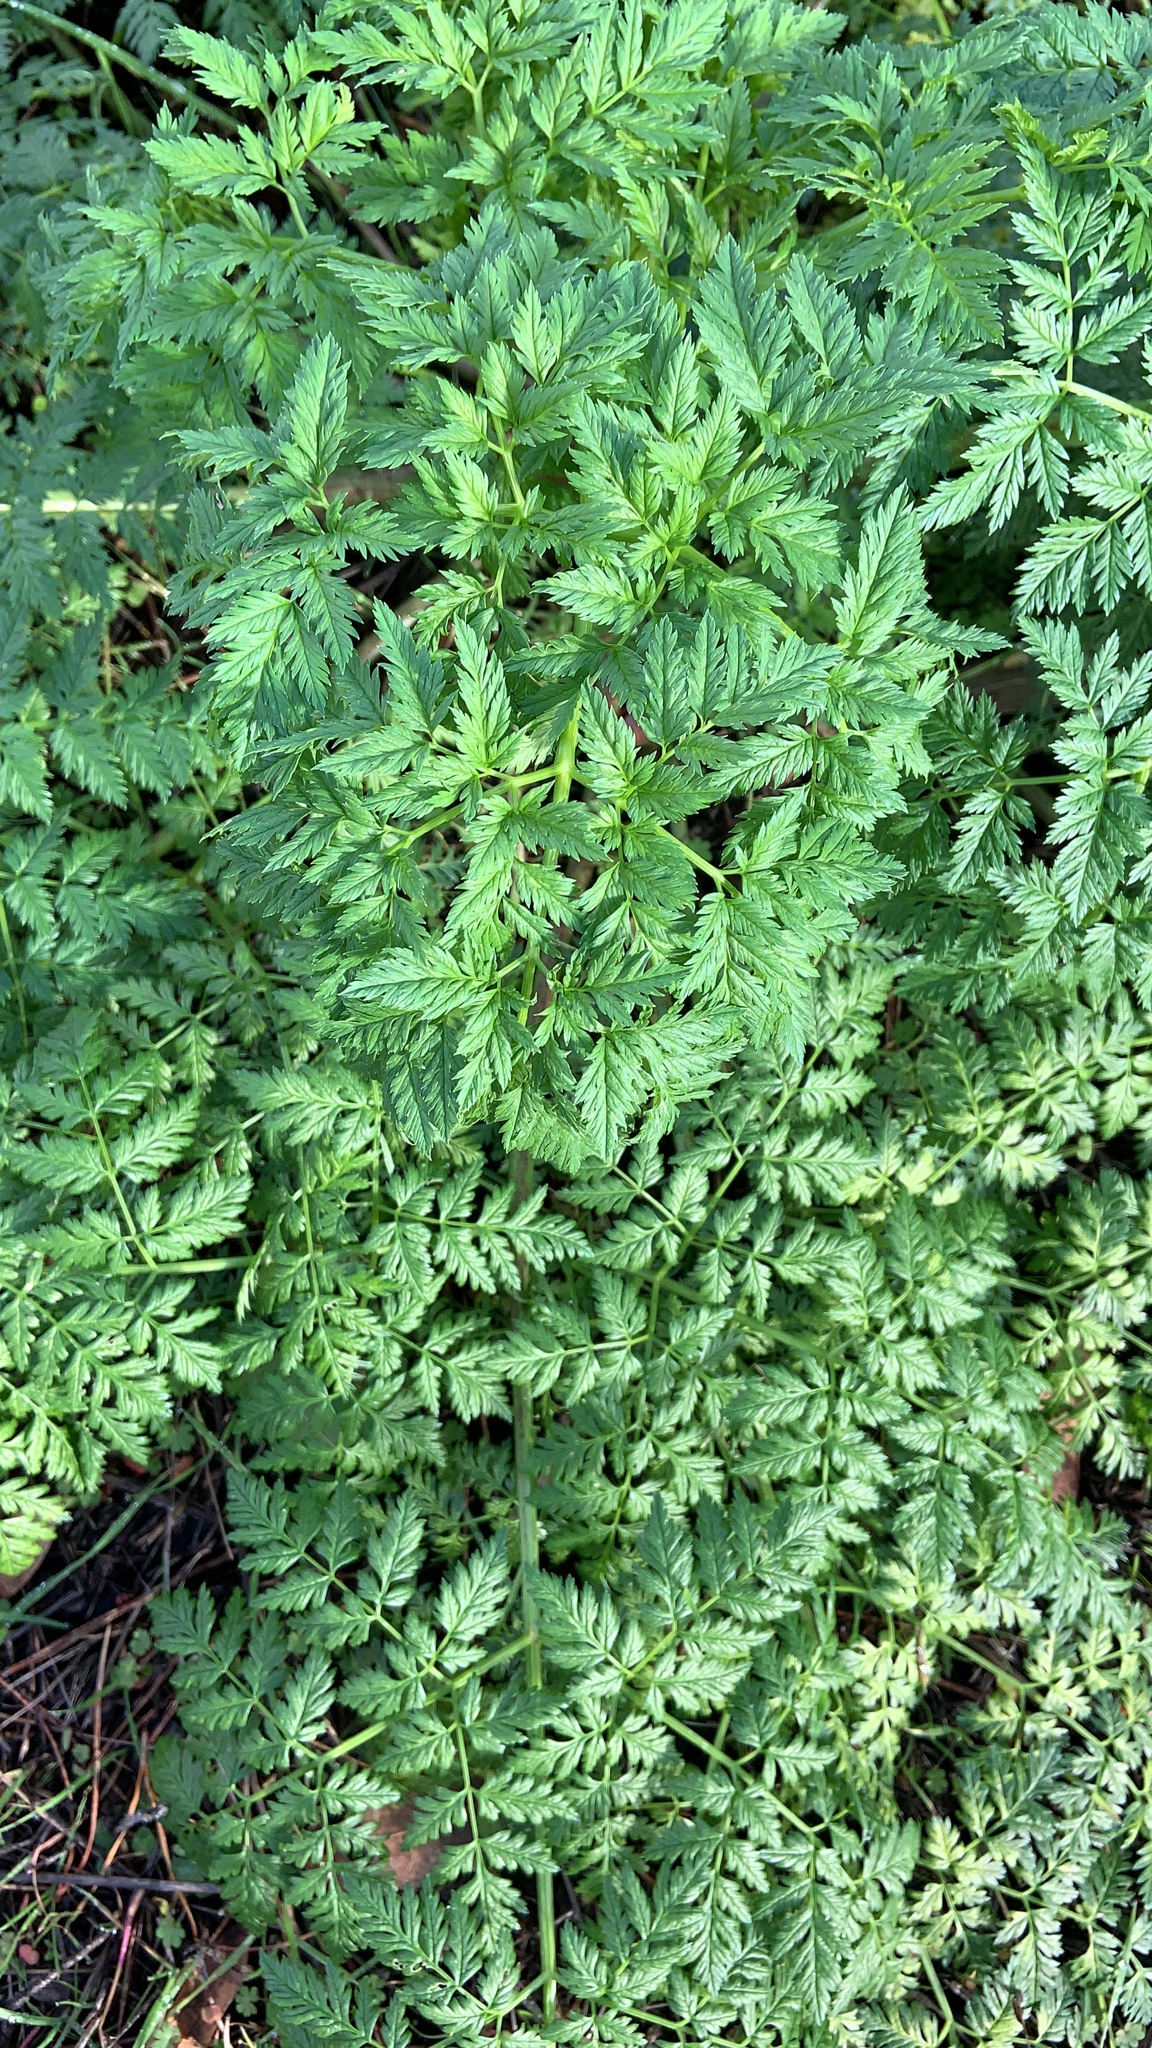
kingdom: Plantae
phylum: Tracheophyta
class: Magnoliopsida
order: Apiales
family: Apiaceae
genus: Conium
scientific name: Conium maculatum
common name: Hemlock
